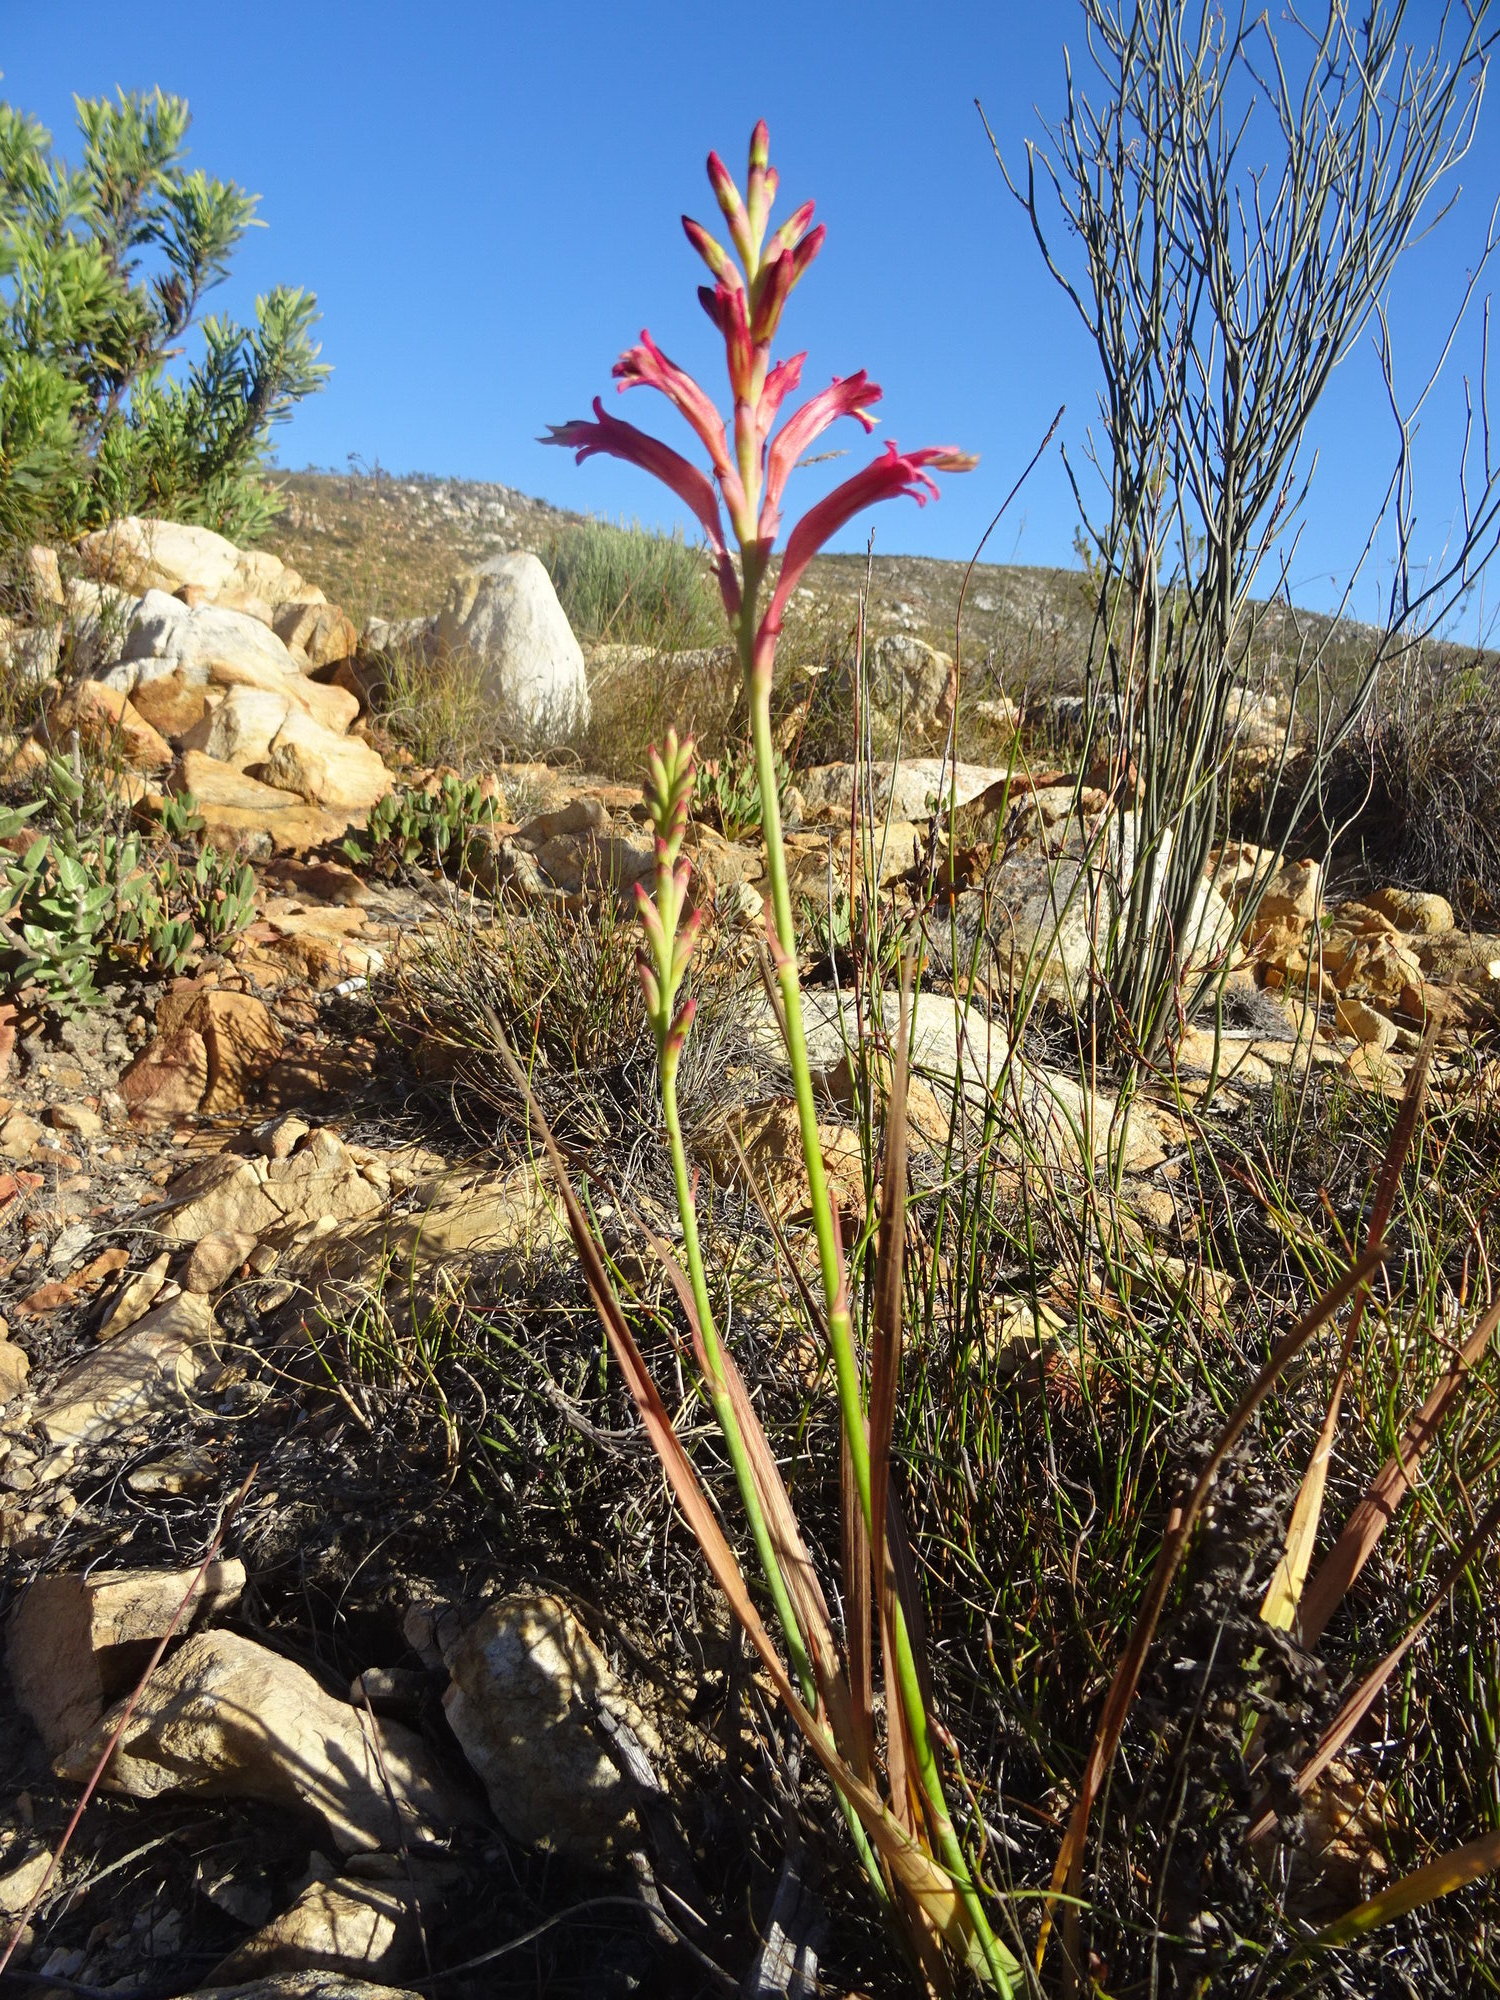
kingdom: Plantae
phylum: Tracheophyta
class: Liliopsida
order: Asparagales
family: Iridaceae
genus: Tritoniopsis
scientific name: Tritoniopsis antholyza
